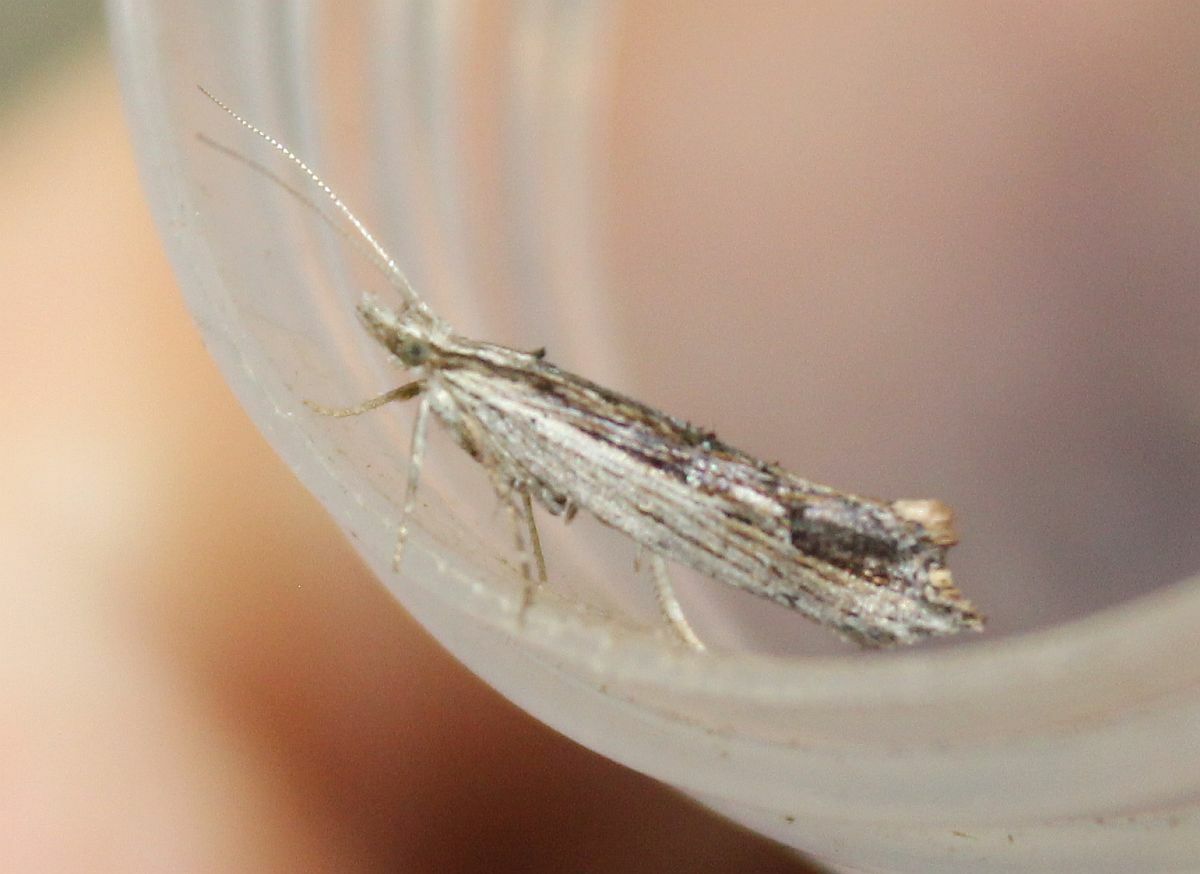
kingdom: Animalia
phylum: Arthropoda
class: Insecta
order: Lepidoptera
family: Ypsolophidae
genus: Ypsolopha
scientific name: Ypsolopha scabrella
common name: Wainscot smudge
